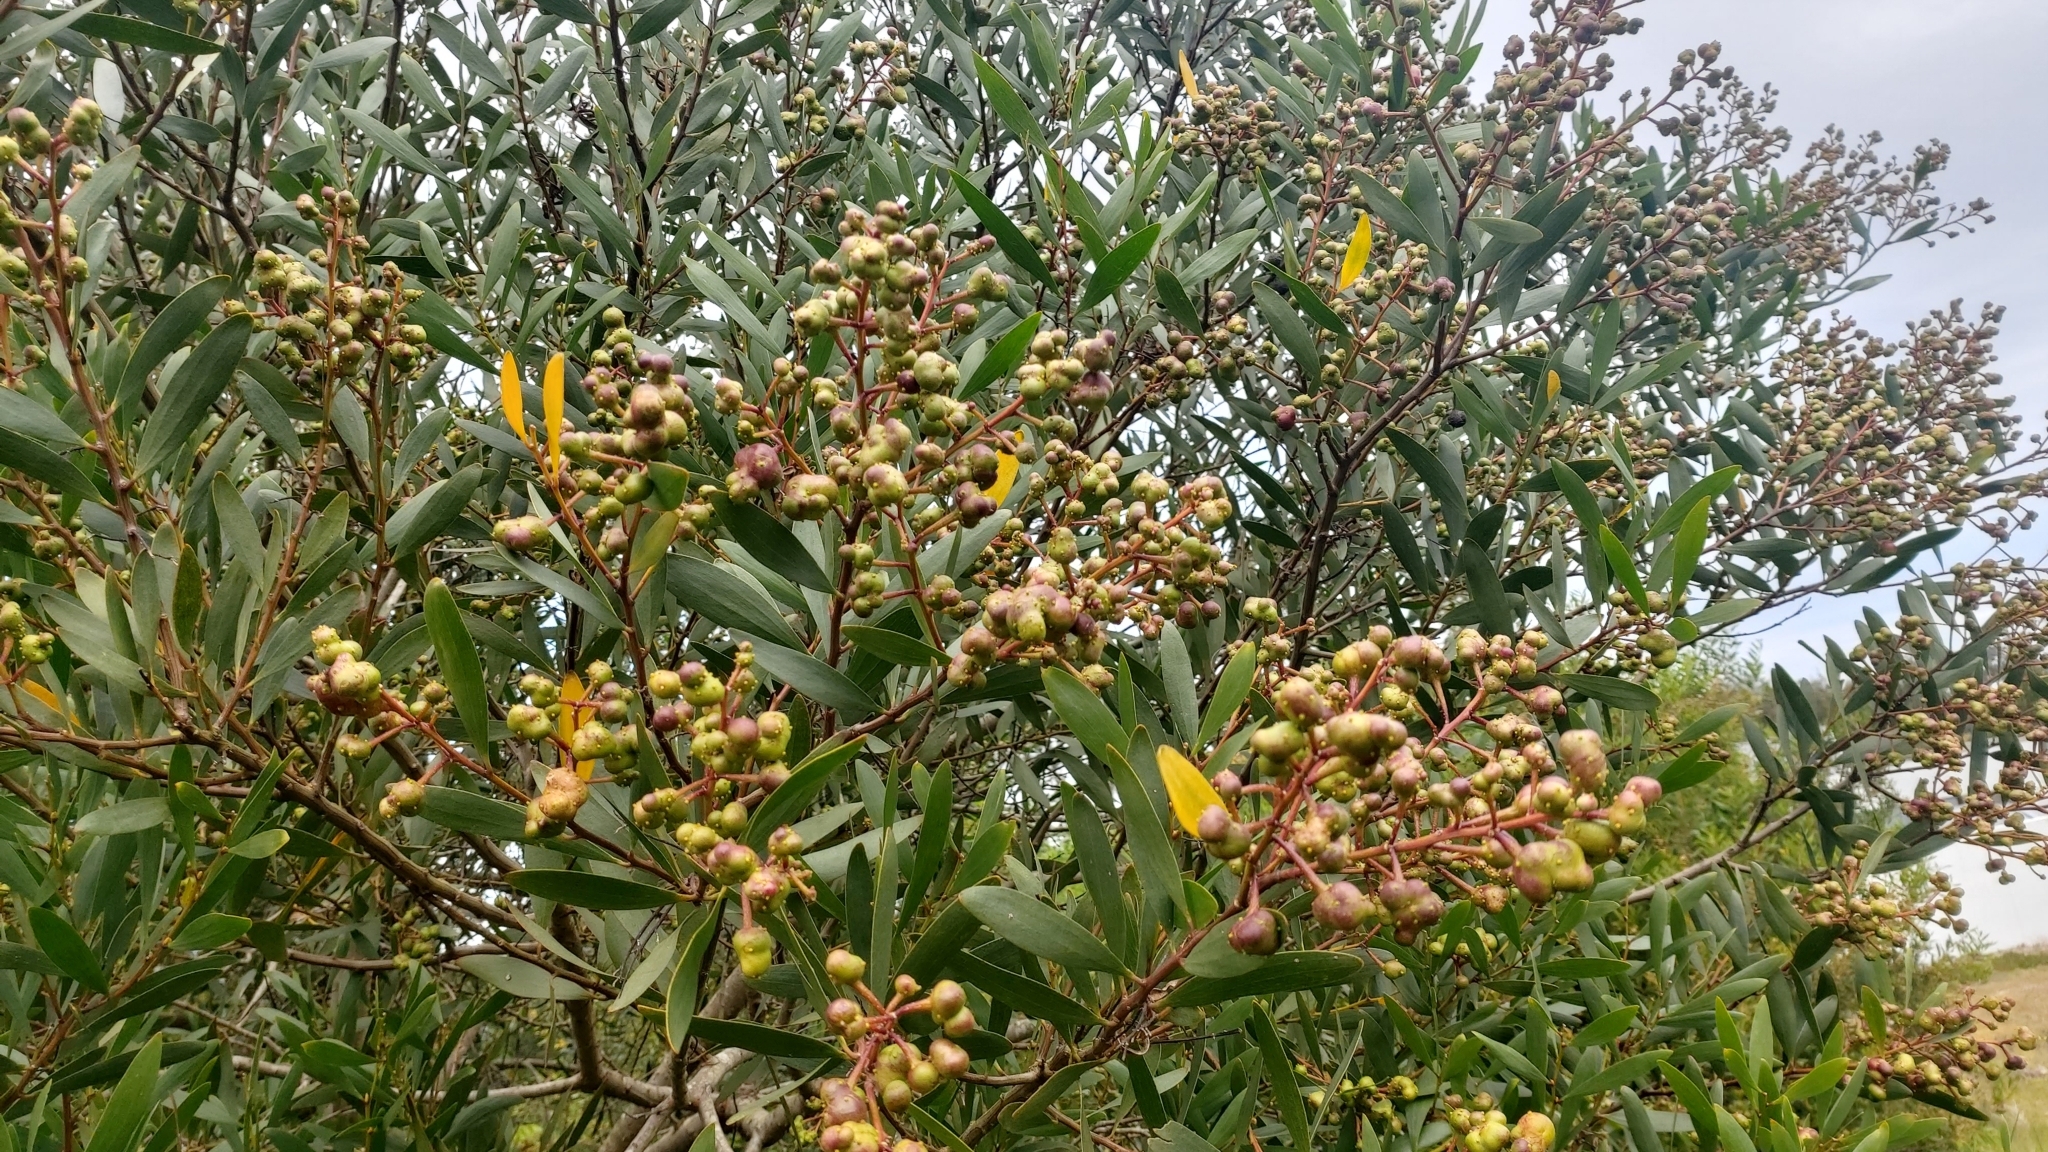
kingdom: Animalia
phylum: Arthropoda
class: Insecta
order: Hymenoptera
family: Pteromalidae
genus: Trichilogaster
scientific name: Trichilogaster acaciaelongifoliae
